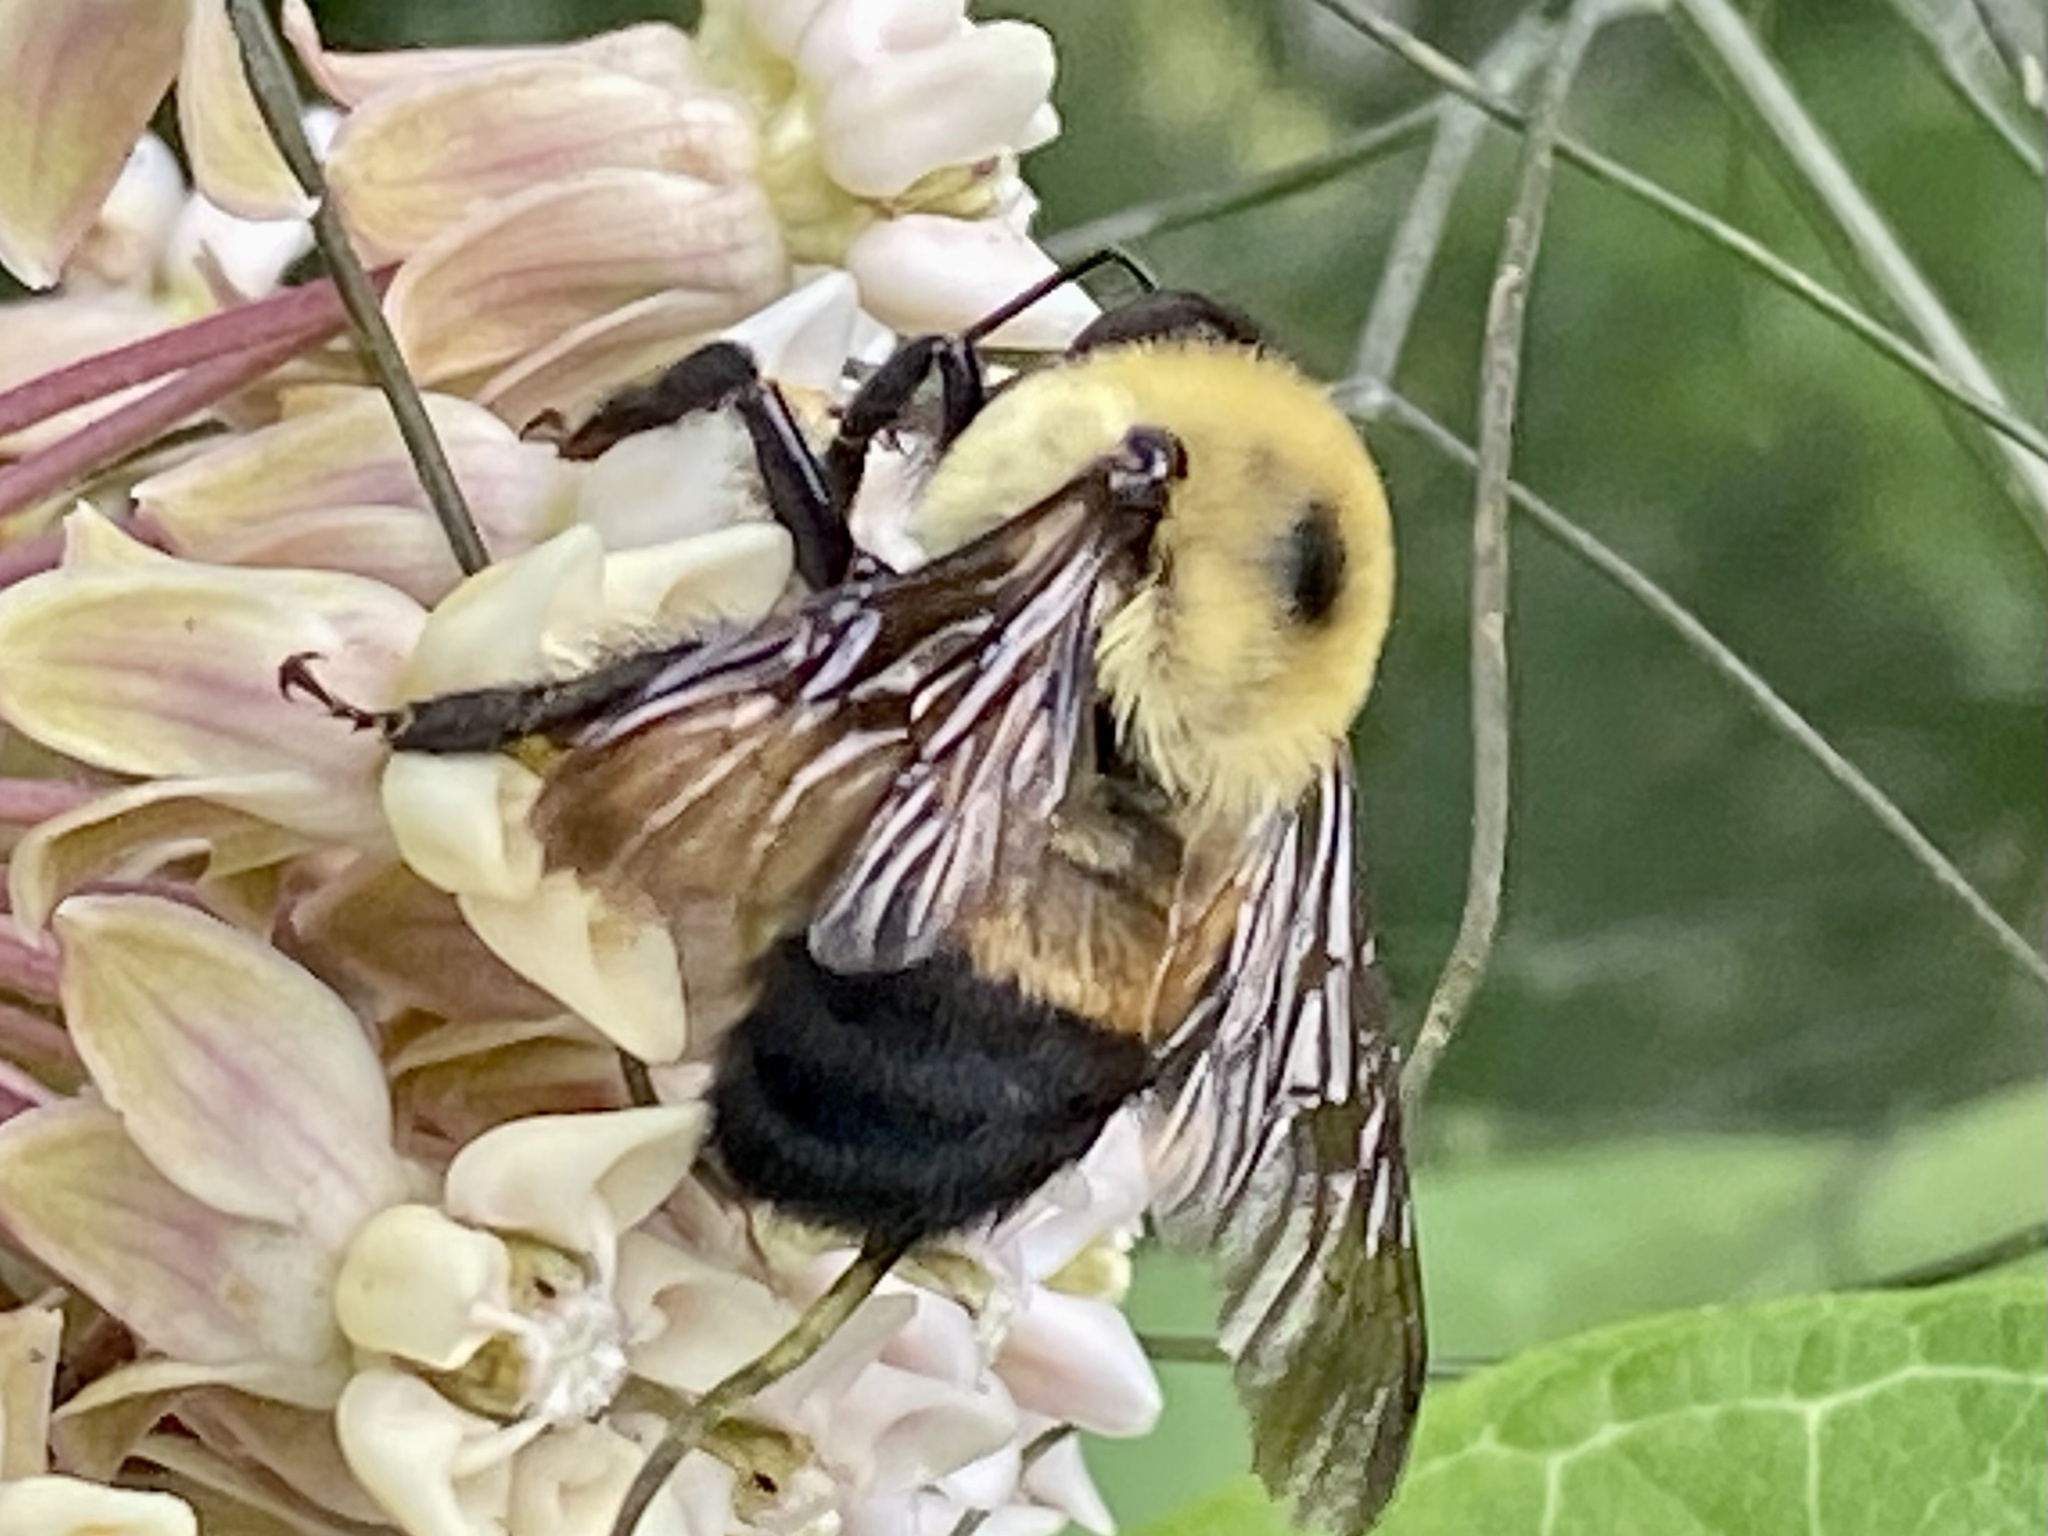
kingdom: Animalia
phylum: Arthropoda
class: Insecta
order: Hymenoptera
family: Apidae
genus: Bombus
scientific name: Bombus griseocollis
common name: Brown-belted bumble bee
